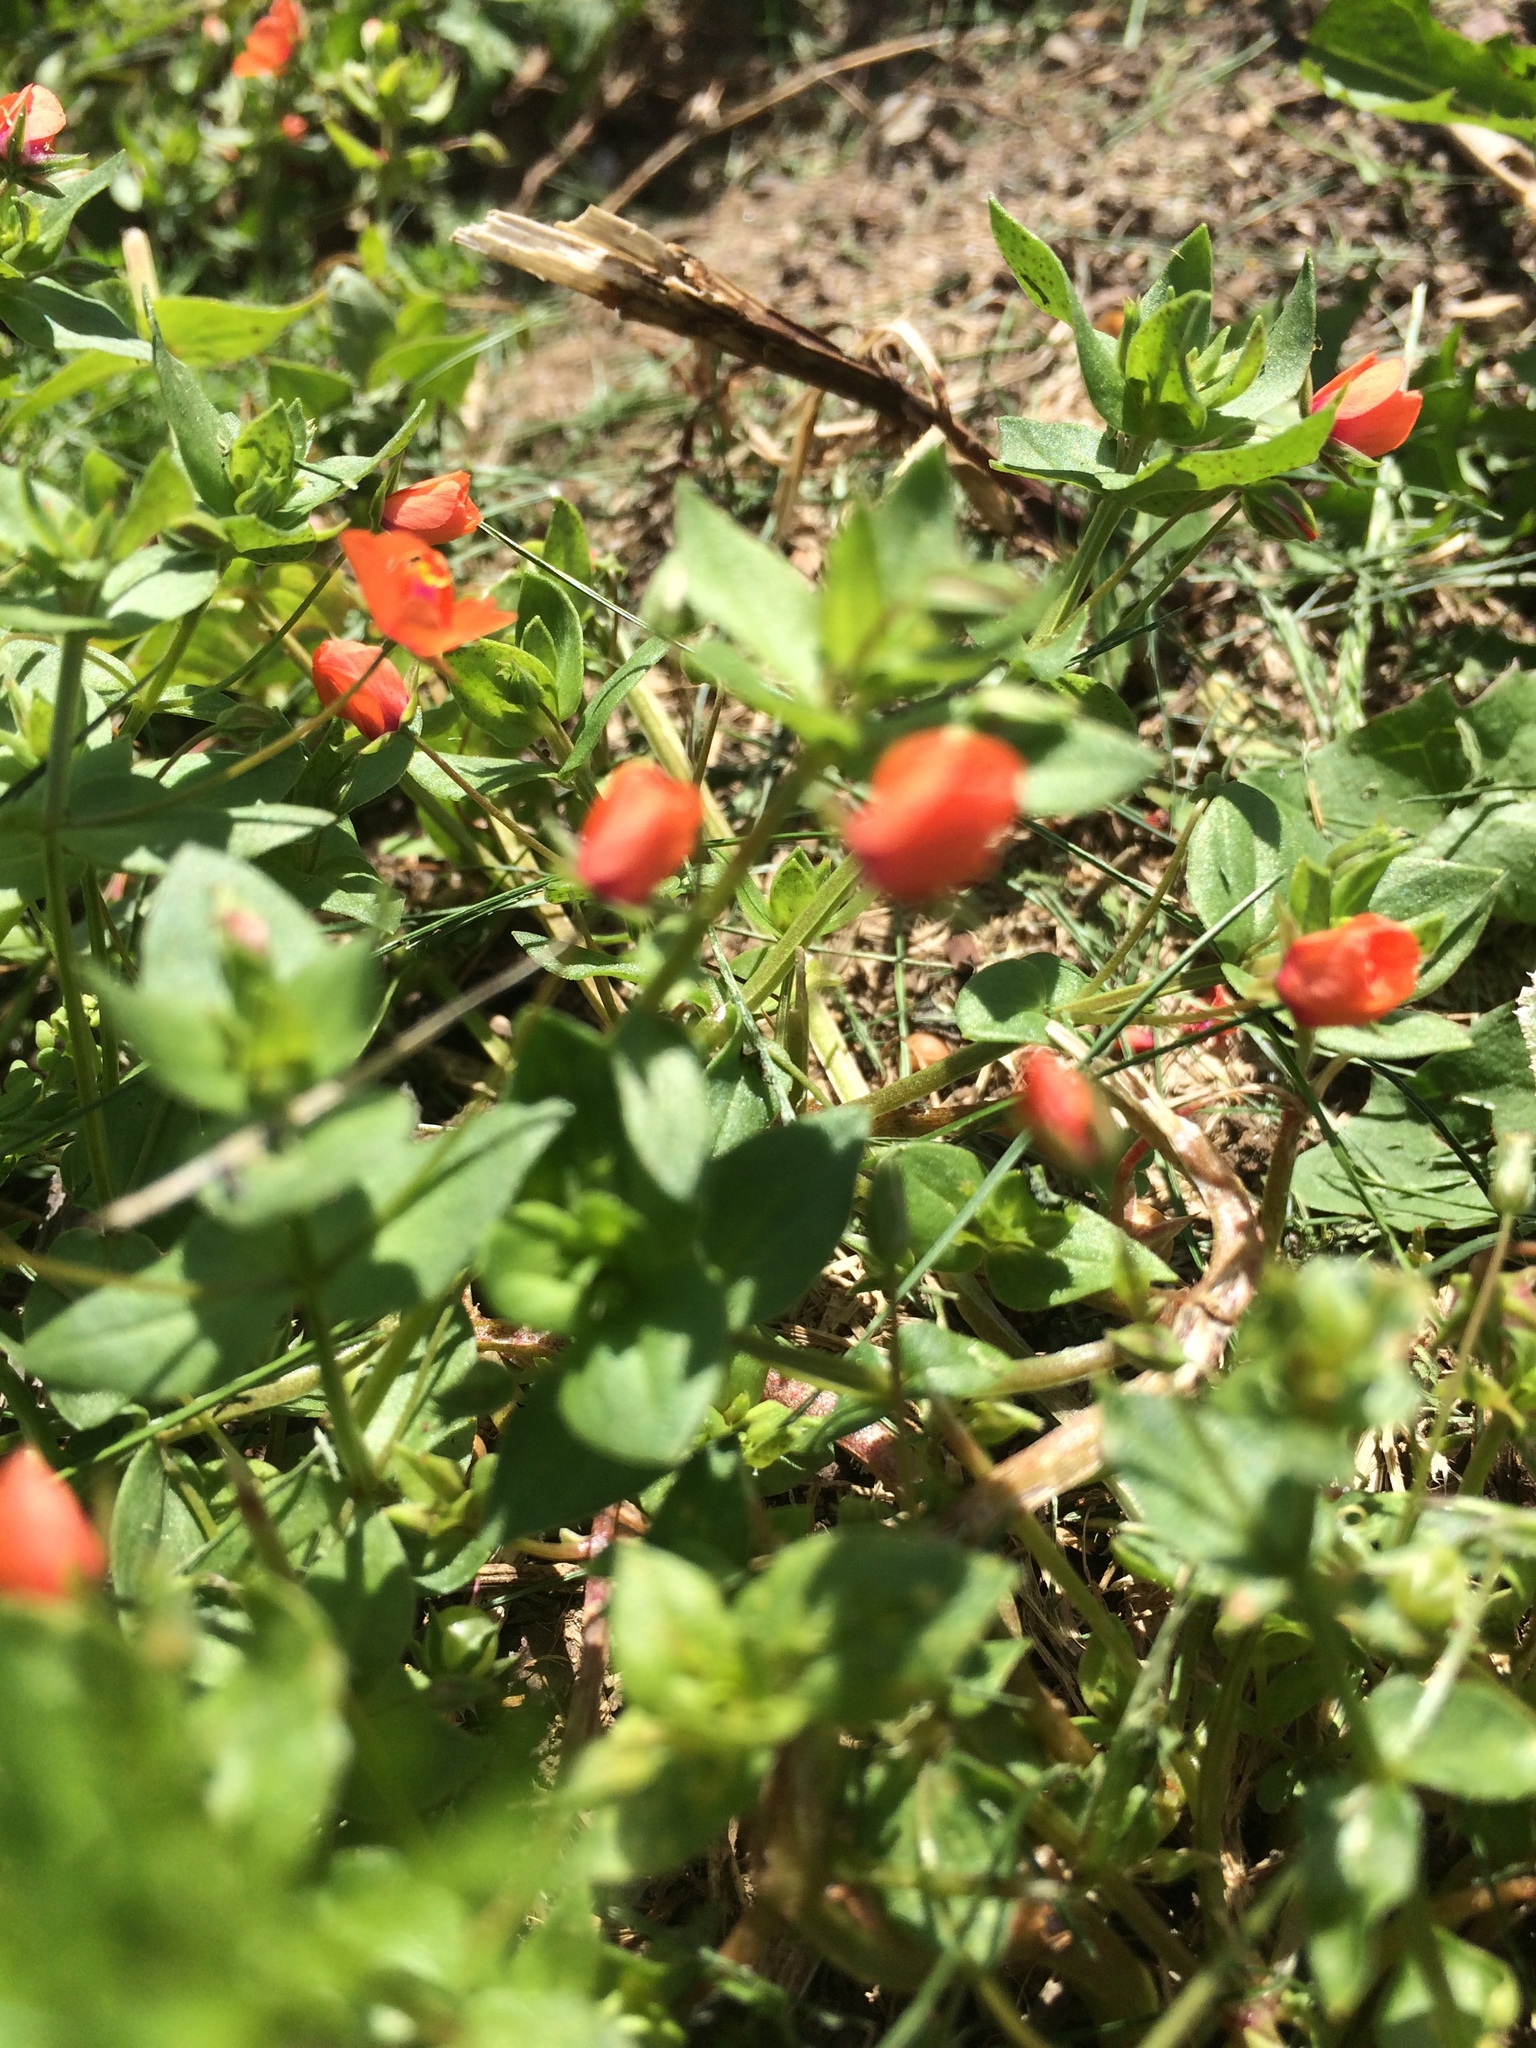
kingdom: Plantae
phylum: Tracheophyta
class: Magnoliopsida
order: Ericales
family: Primulaceae
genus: Lysimachia
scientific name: Lysimachia arvensis
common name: Scarlet pimpernel
